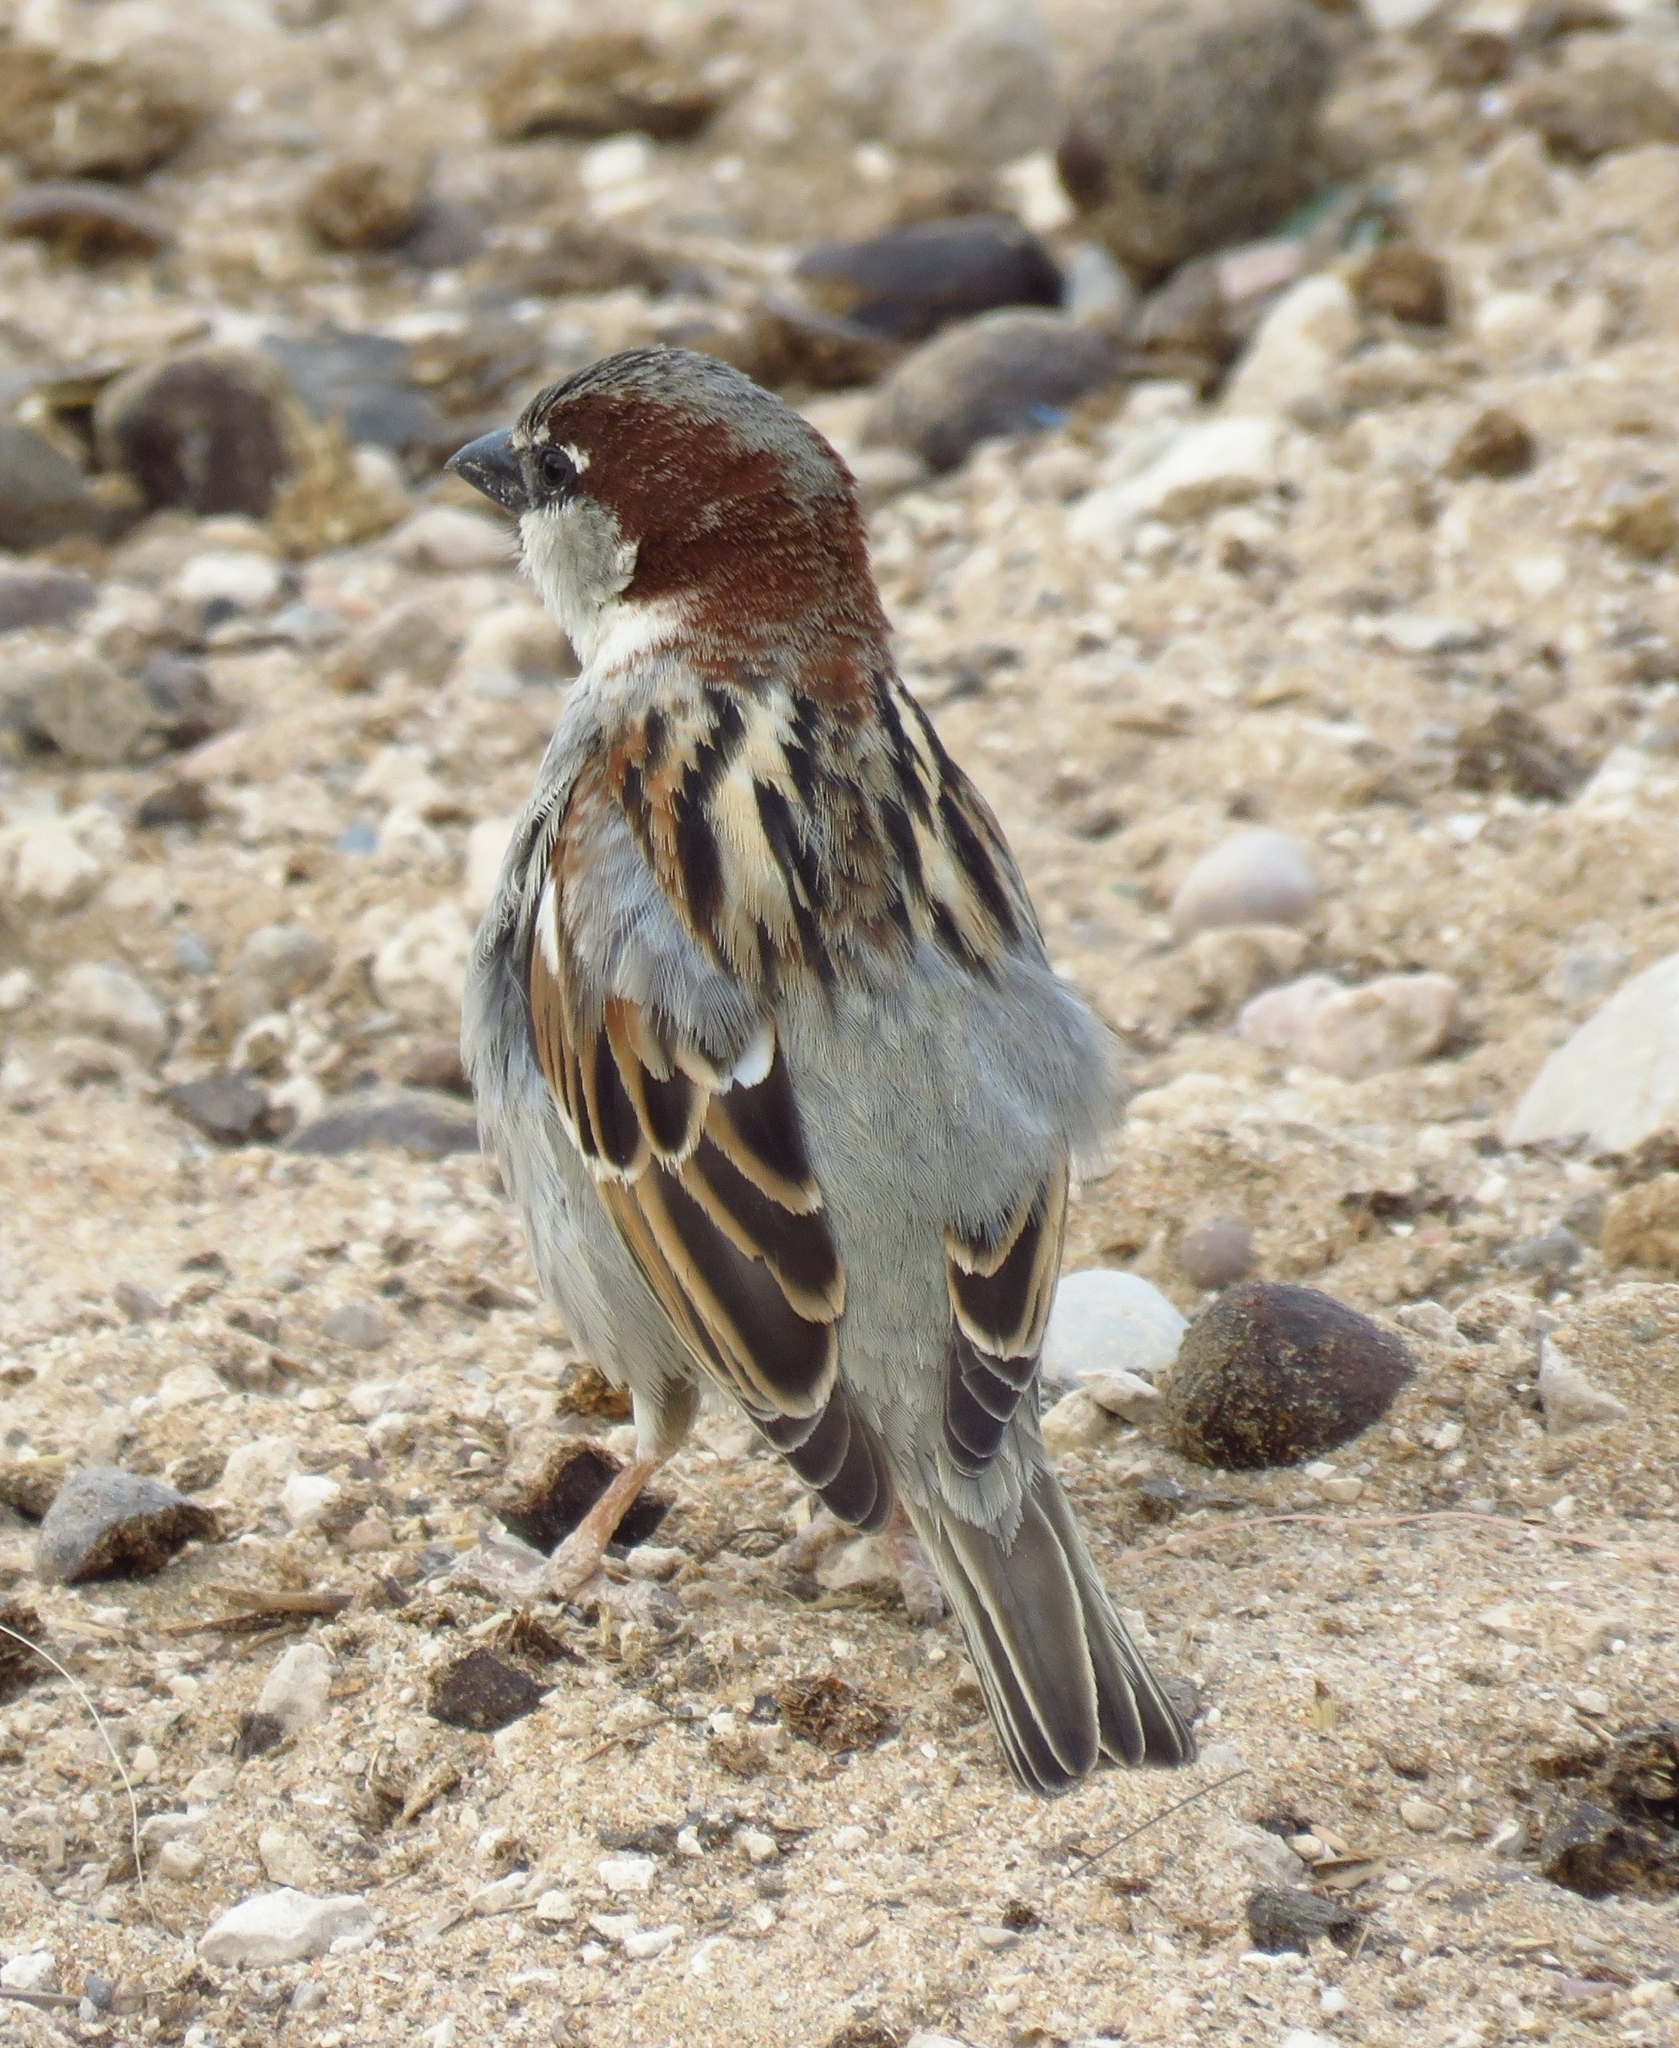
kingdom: Animalia
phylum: Chordata
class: Aves
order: Passeriformes
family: Passeridae
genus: Passer
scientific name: Passer domesticus
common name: House sparrow
